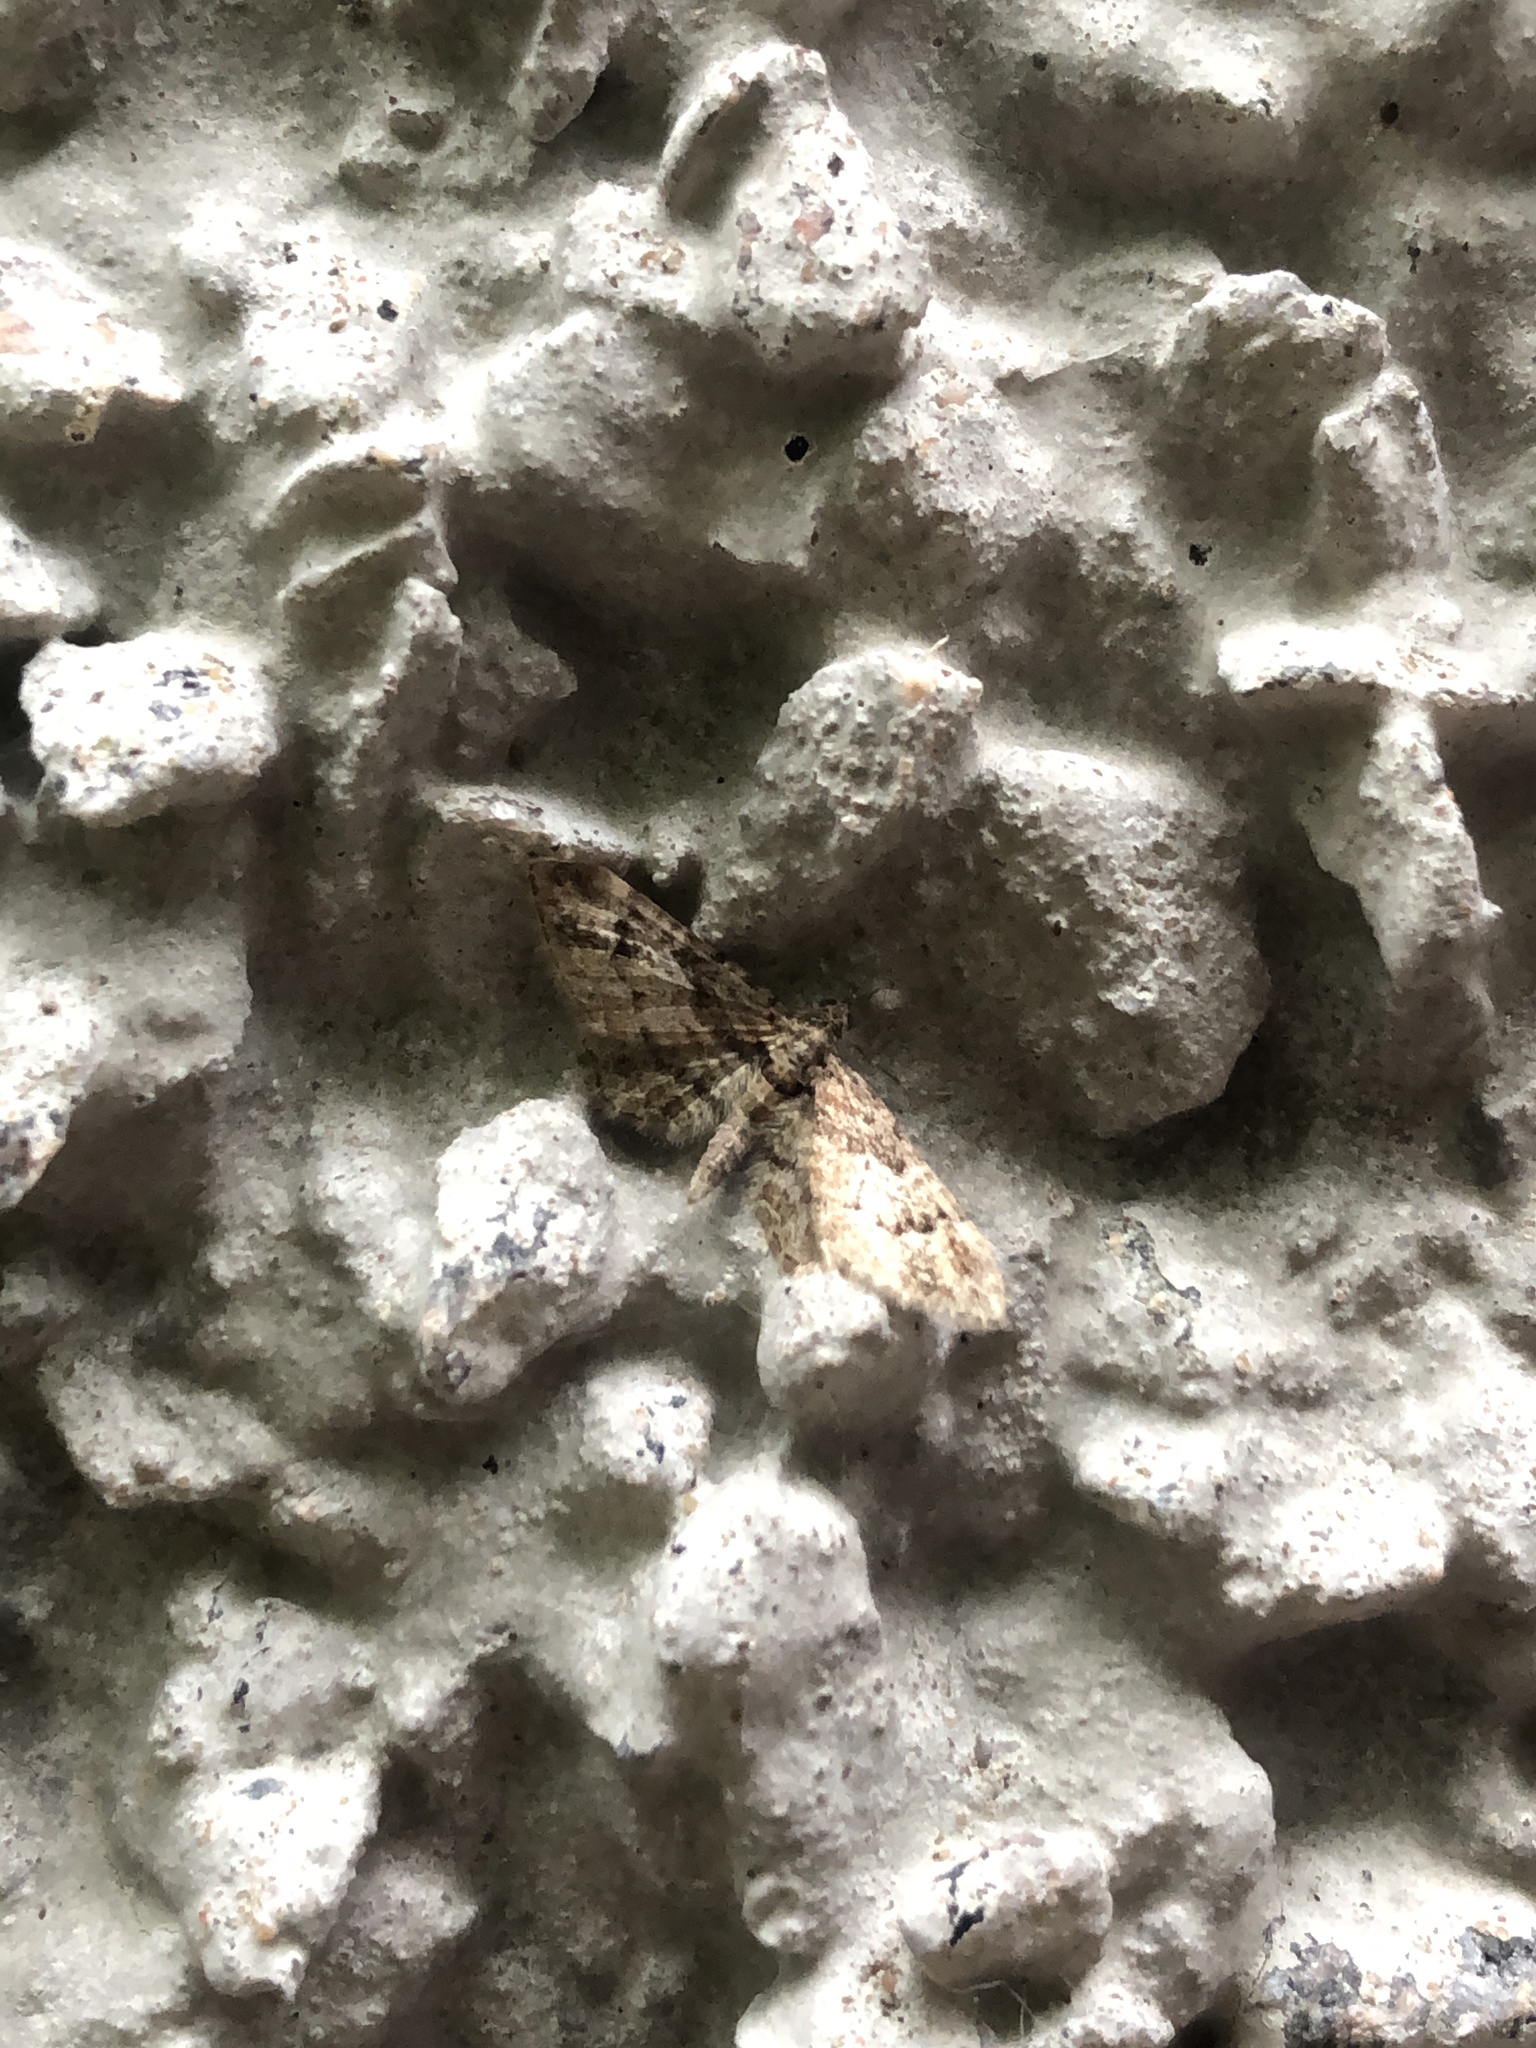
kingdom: Animalia
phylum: Arthropoda
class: Insecta
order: Lepidoptera
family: Geometridae
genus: Gymnoscelis
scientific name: Gymnoscelis rufifasciata
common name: Double-striped pug
